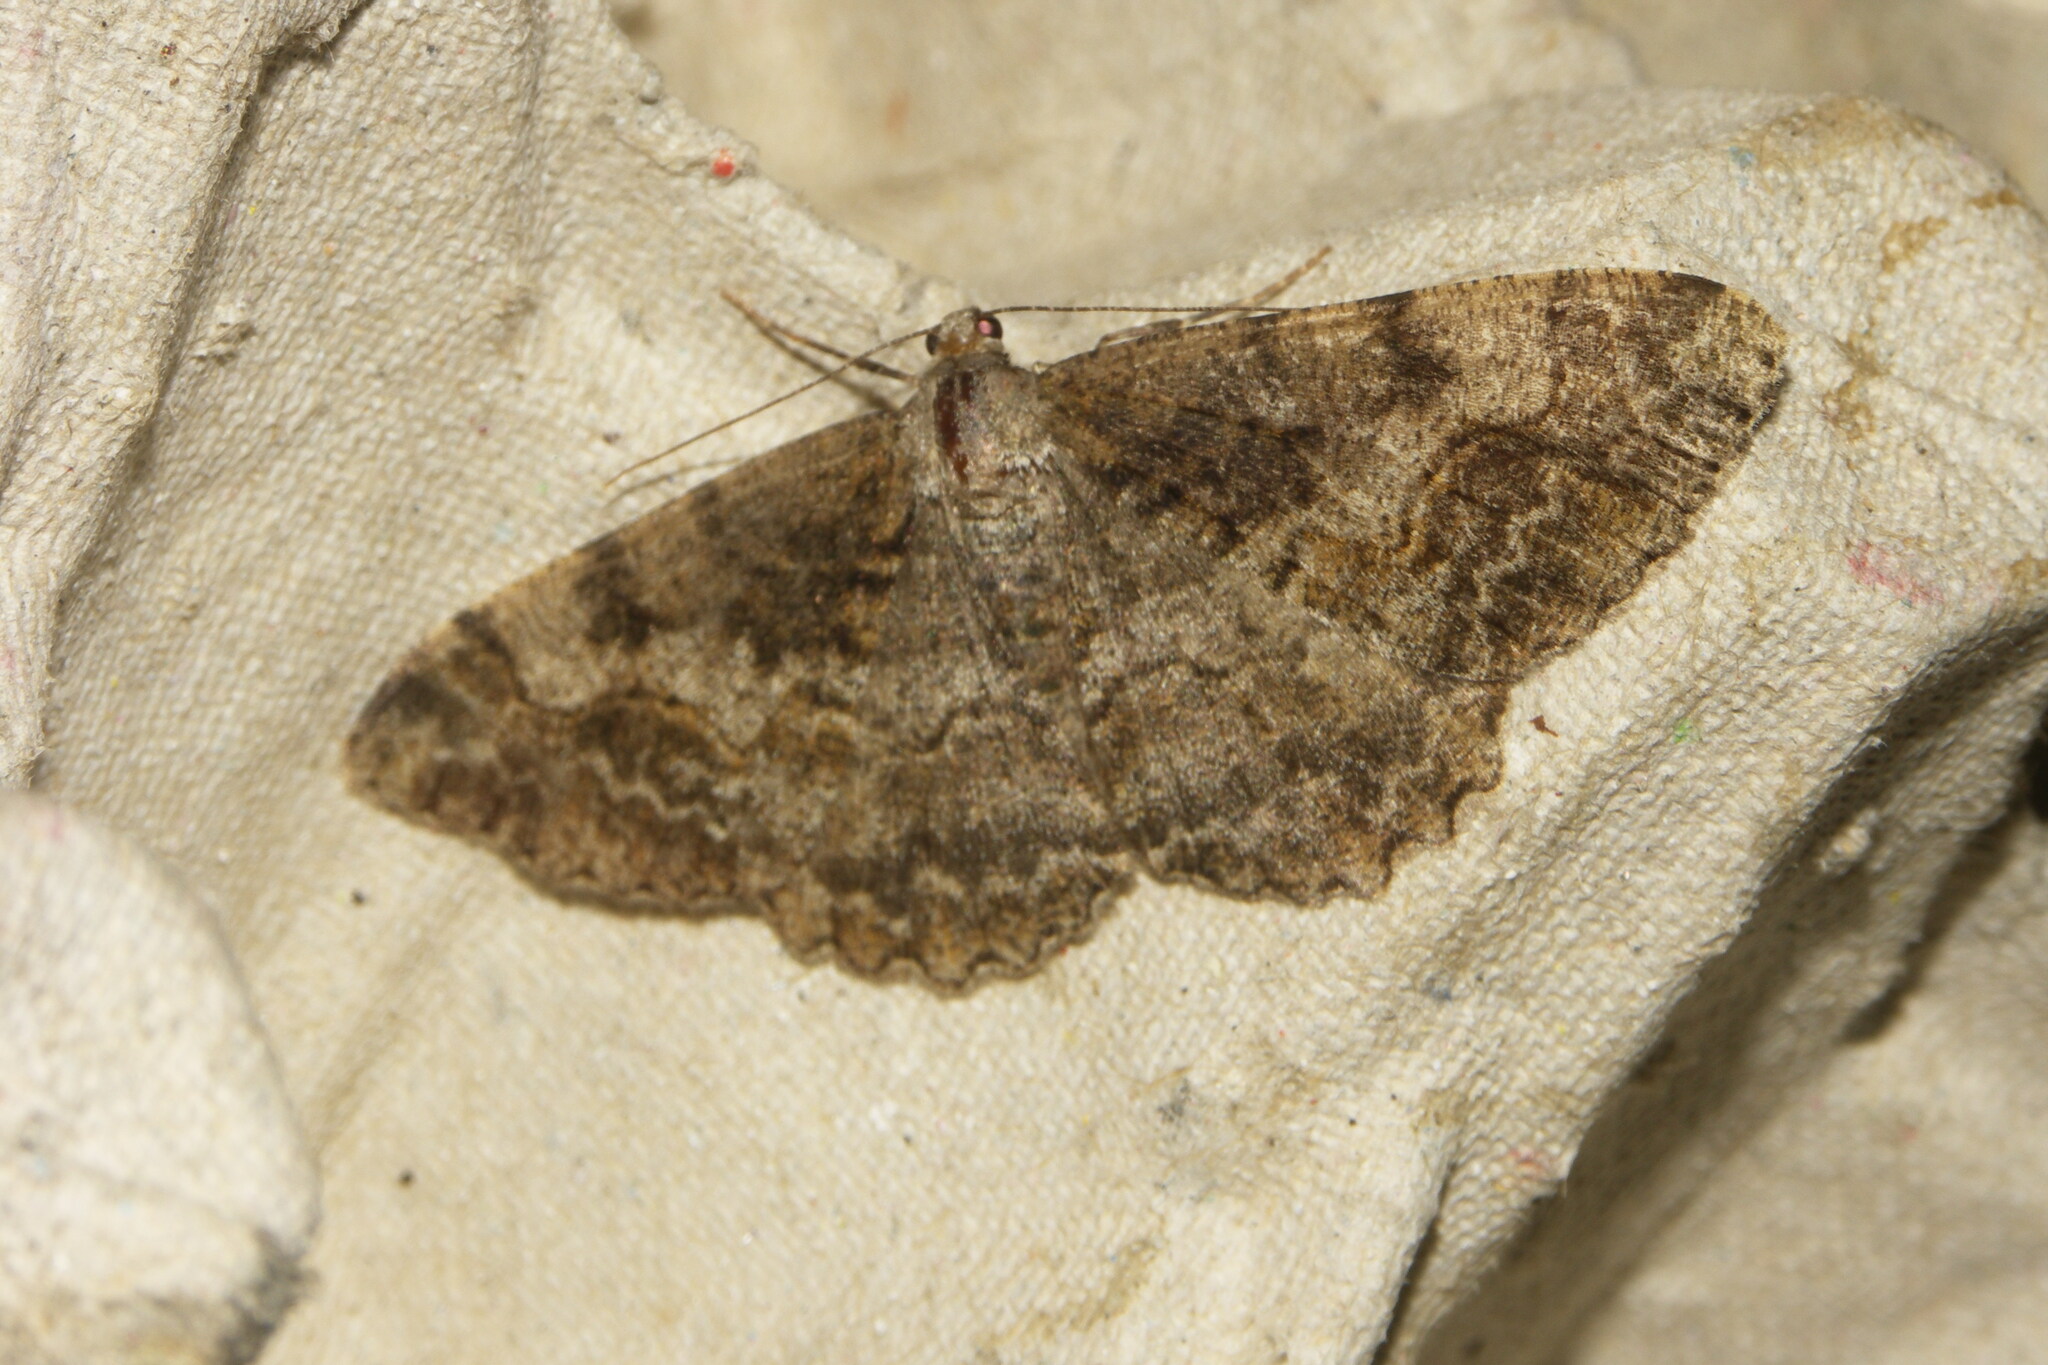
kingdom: Animalia
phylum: Arthropoda
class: Insecta
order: Lepidoptera
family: Geometridae
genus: Alcis
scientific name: Alcis repandata
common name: Mottled beauty
